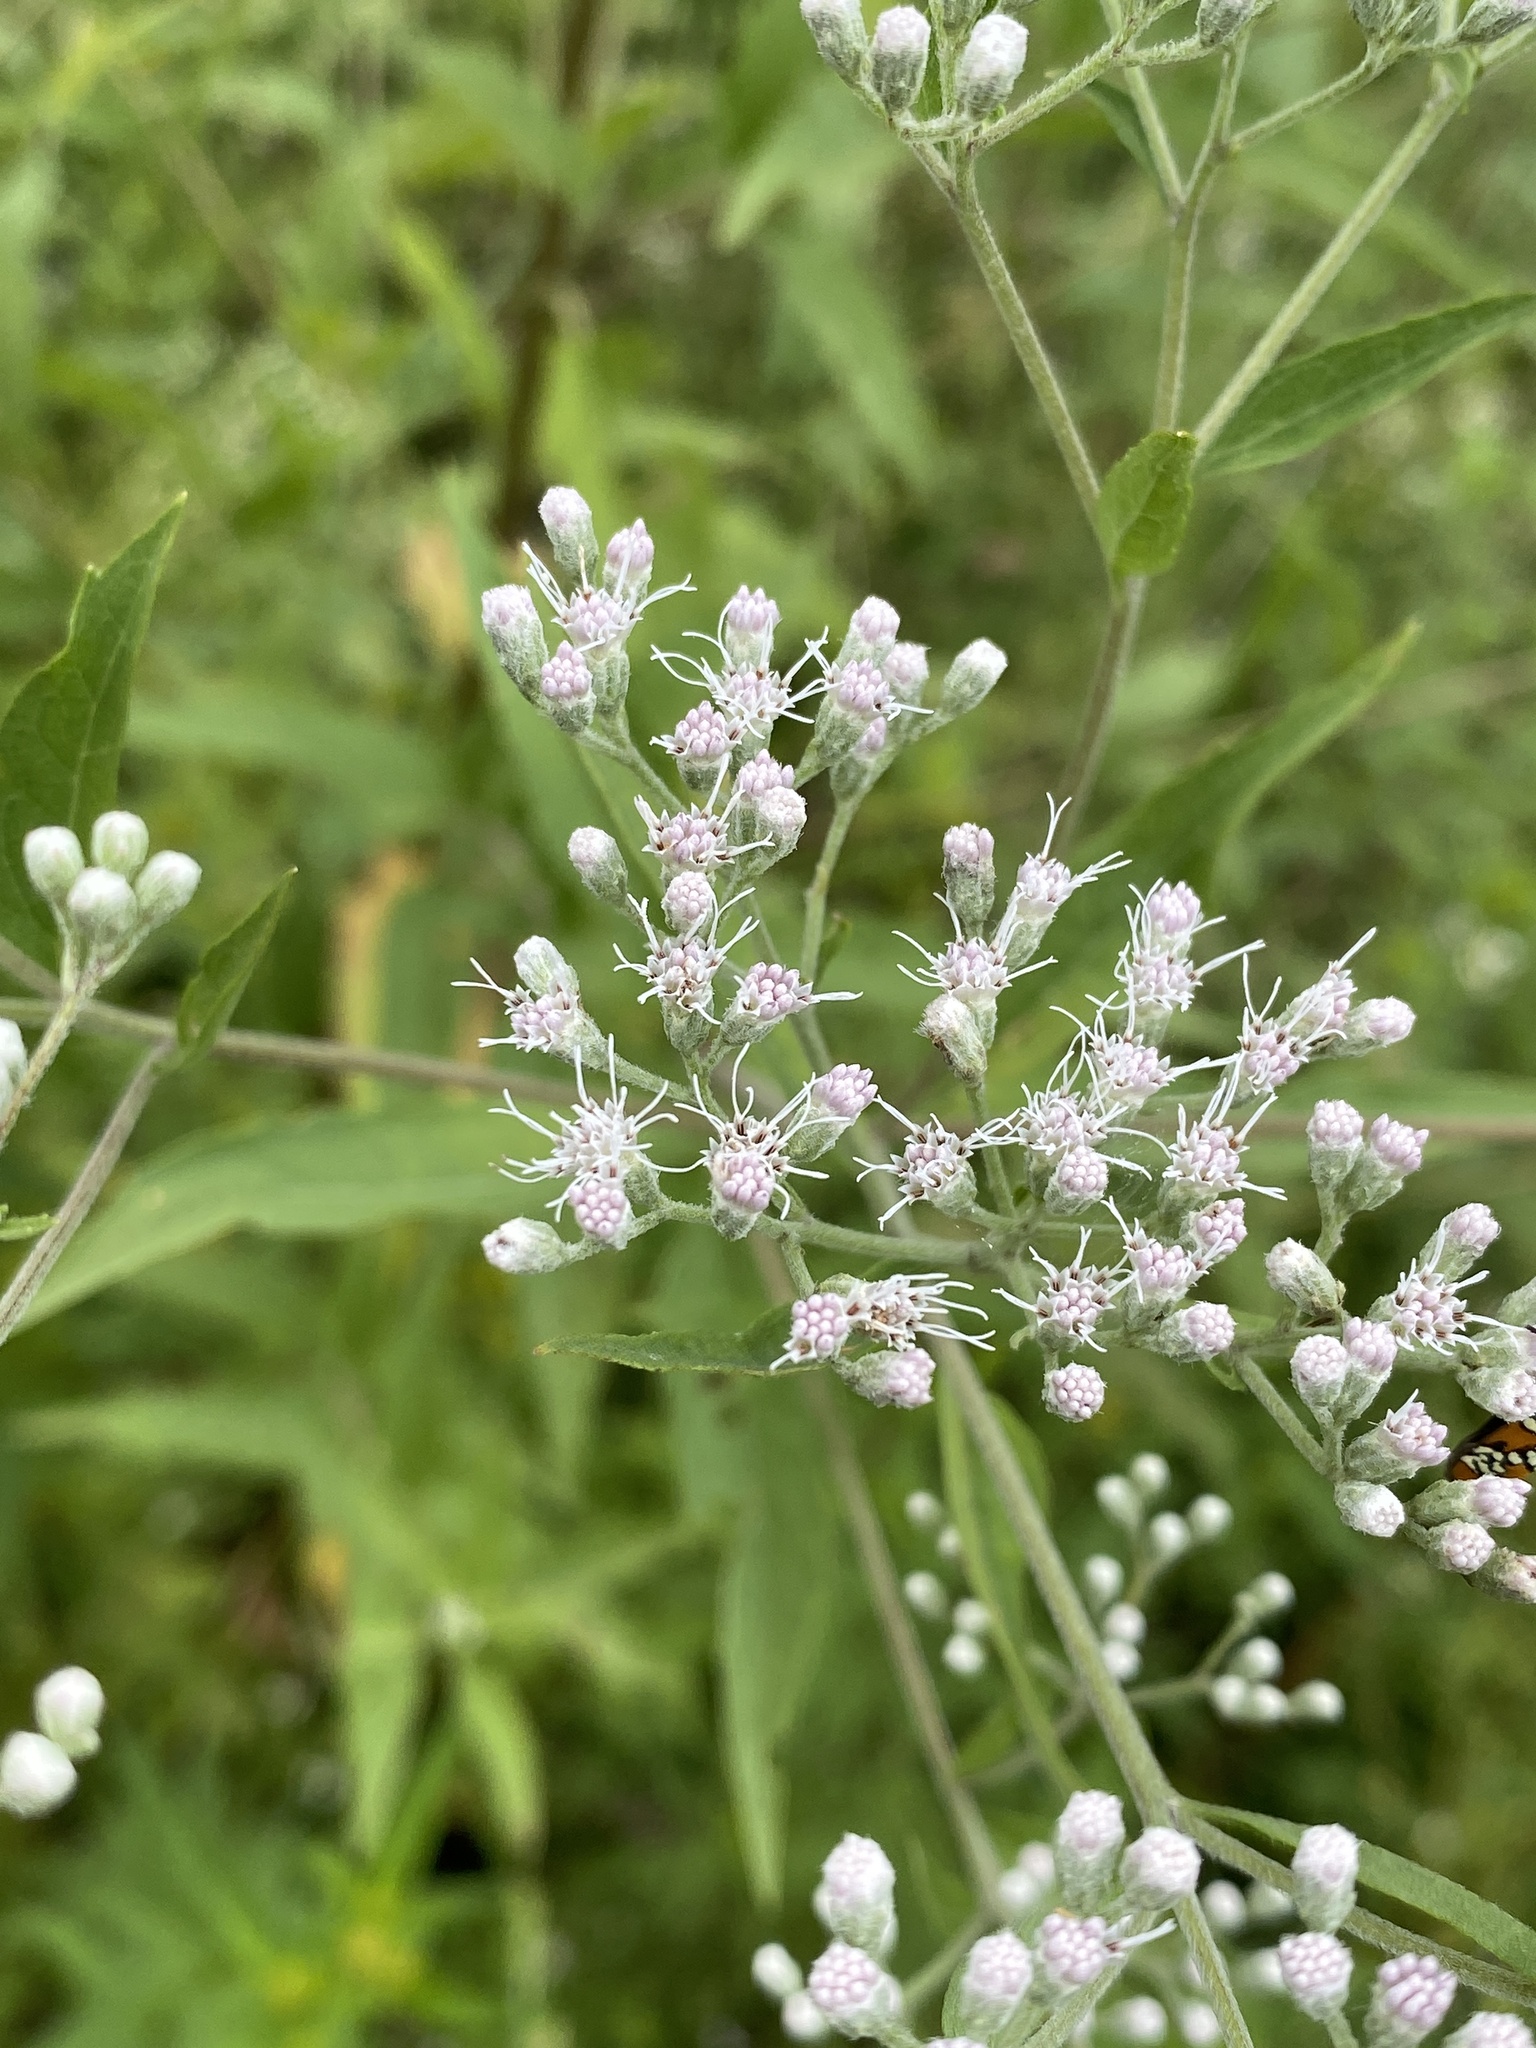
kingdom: Plantae
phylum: Tracheophyta
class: Magnoliopsida
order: Asterales
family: Asteraceae
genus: Eupatorium
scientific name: Eupatorium serotinum
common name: Late boneset
